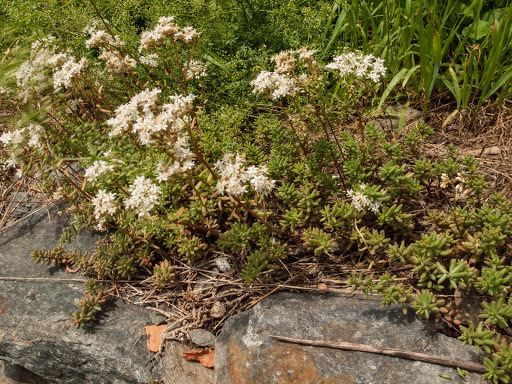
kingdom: Plantae
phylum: Tracheophyta
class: Magnoliopsida
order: Saxifragales
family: Crassulaceae
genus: Sedum
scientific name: Sedum album
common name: White stonecrop
